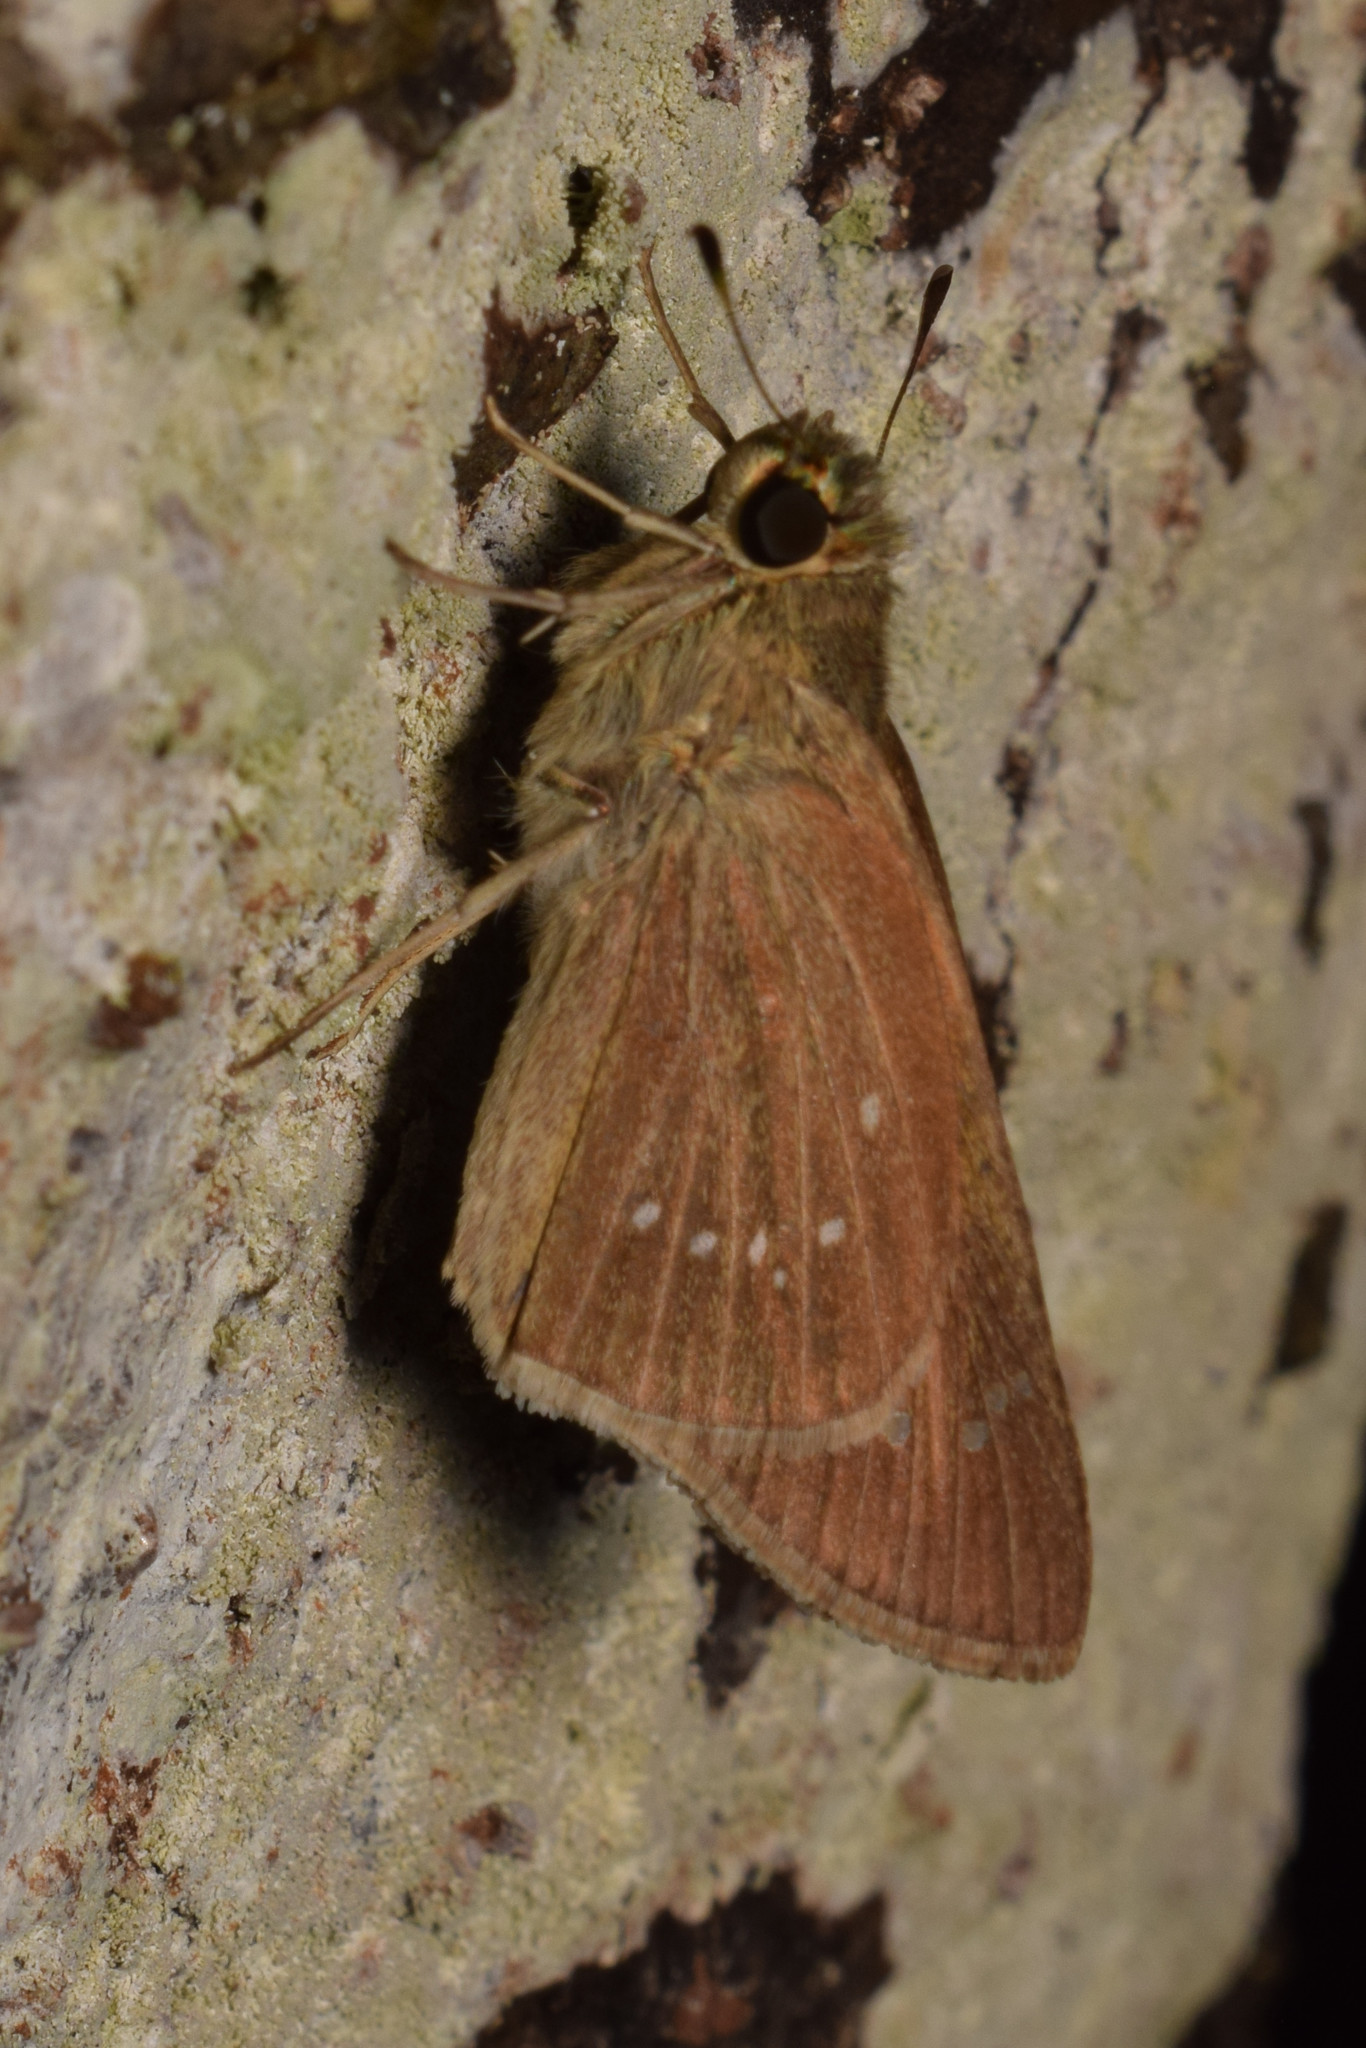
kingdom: Animalia
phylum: Arthropoda
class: Insecta
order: Lepidoptera
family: Hesperiidae
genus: Borbo
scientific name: Borbo cinnara
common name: Formosan swift
